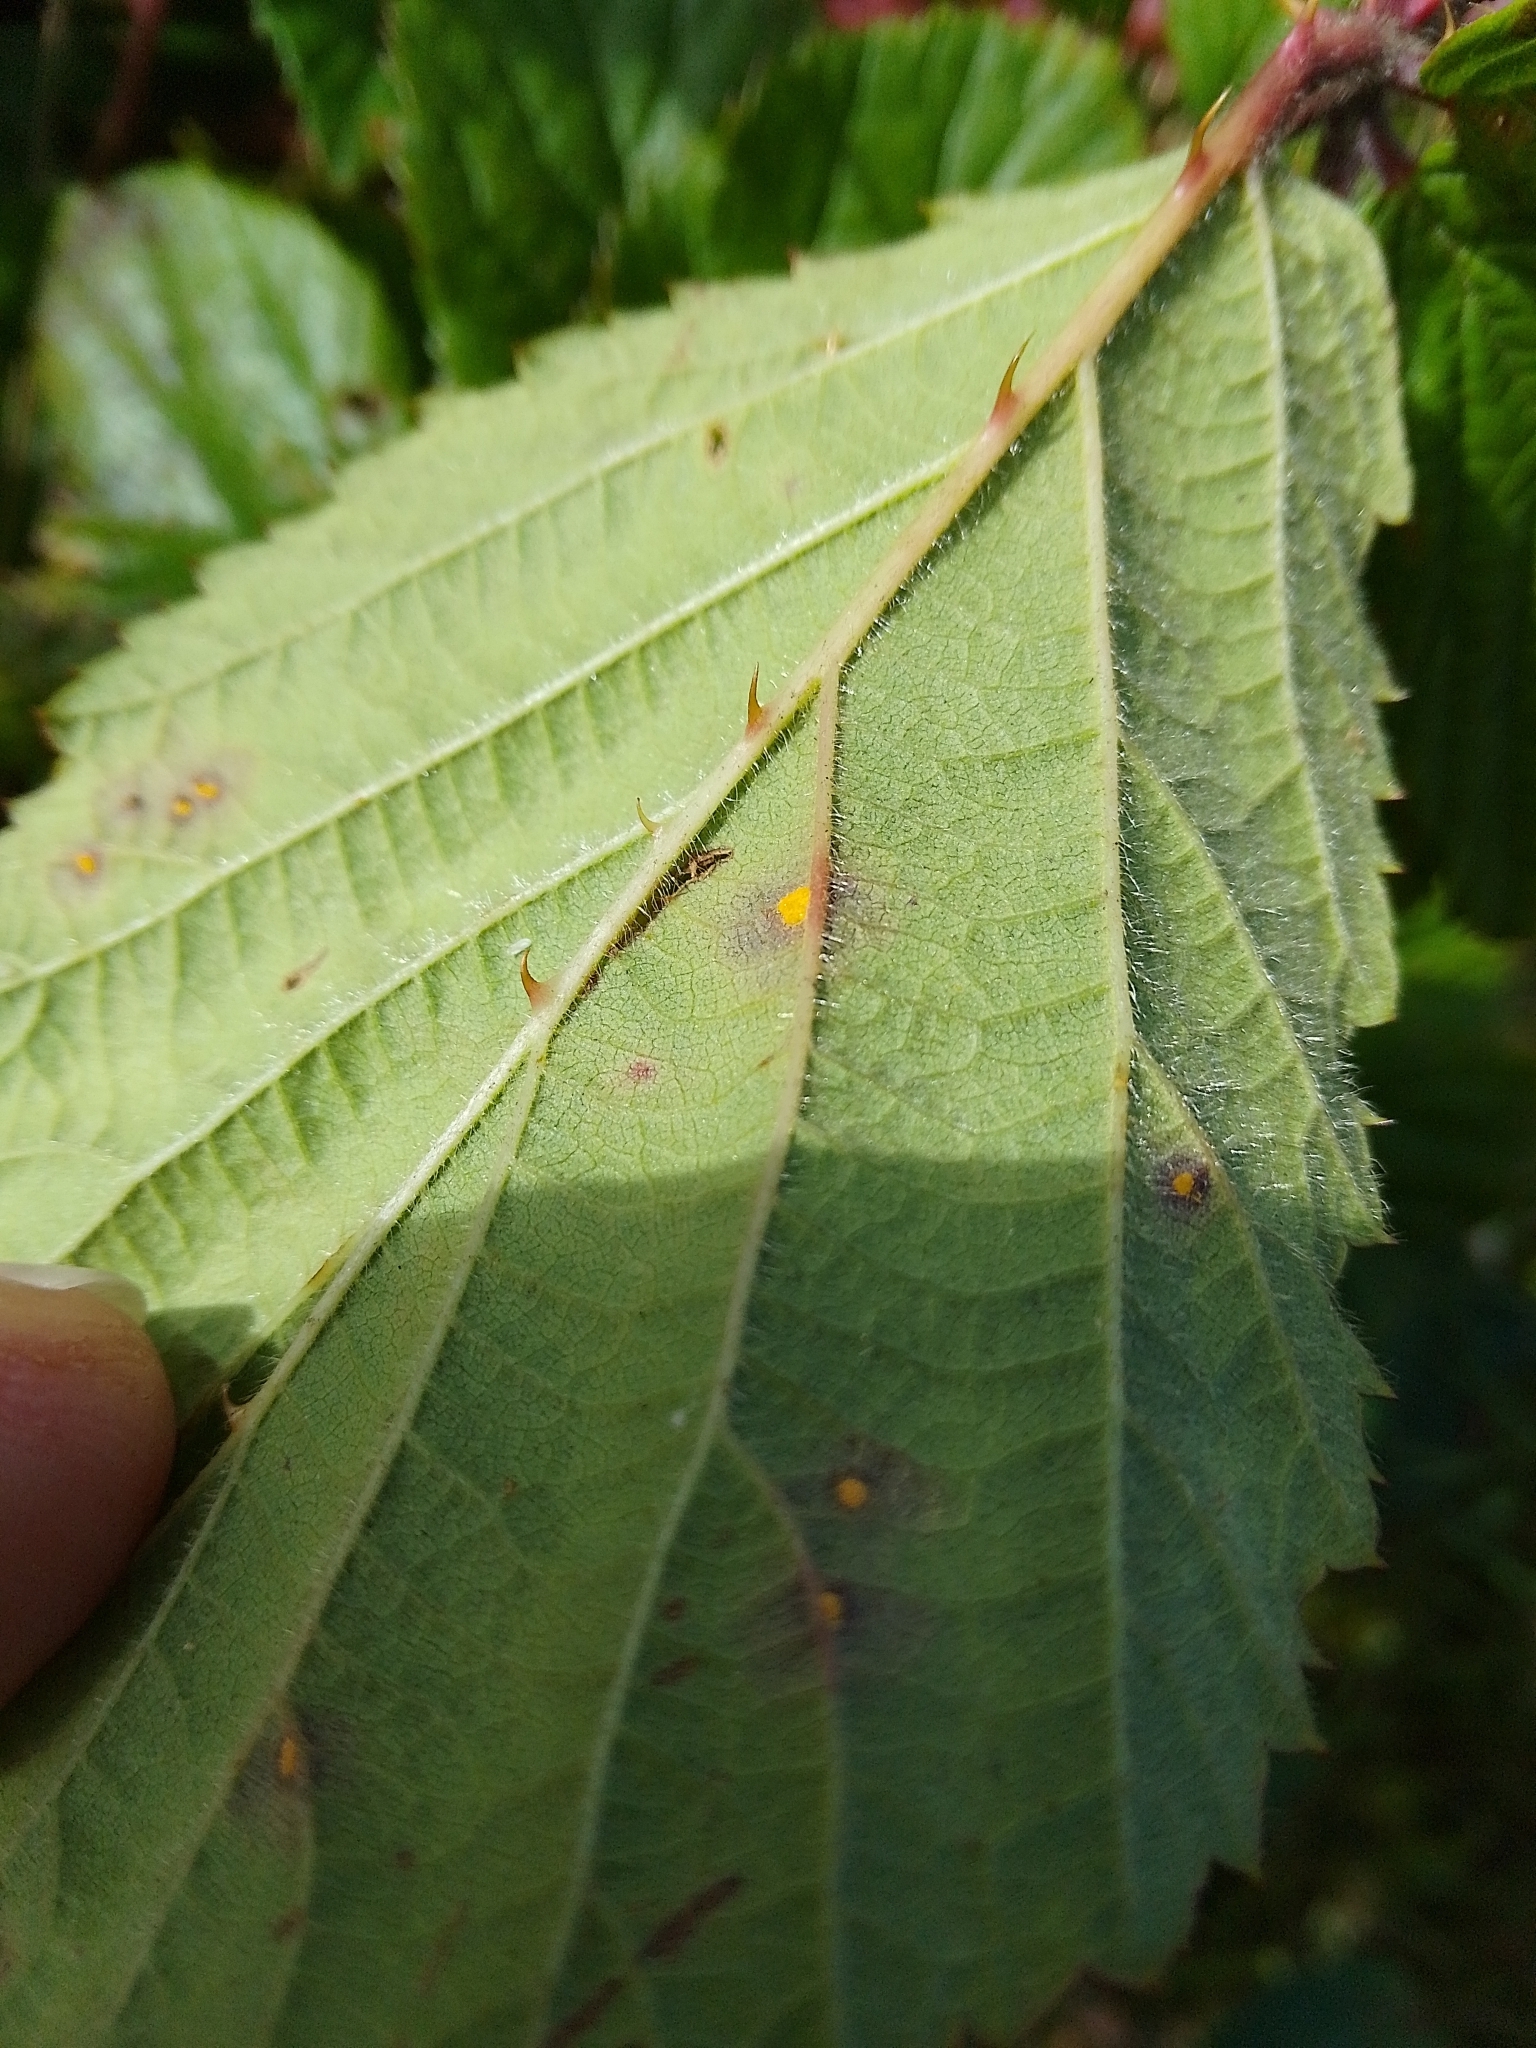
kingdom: Fungi
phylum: Basidiomycota
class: Pucciniomycetes
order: Pucciniales
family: Phragmidiaceae
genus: Phragmidium
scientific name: Phragmidium violaceum
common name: Violet bramble rust
